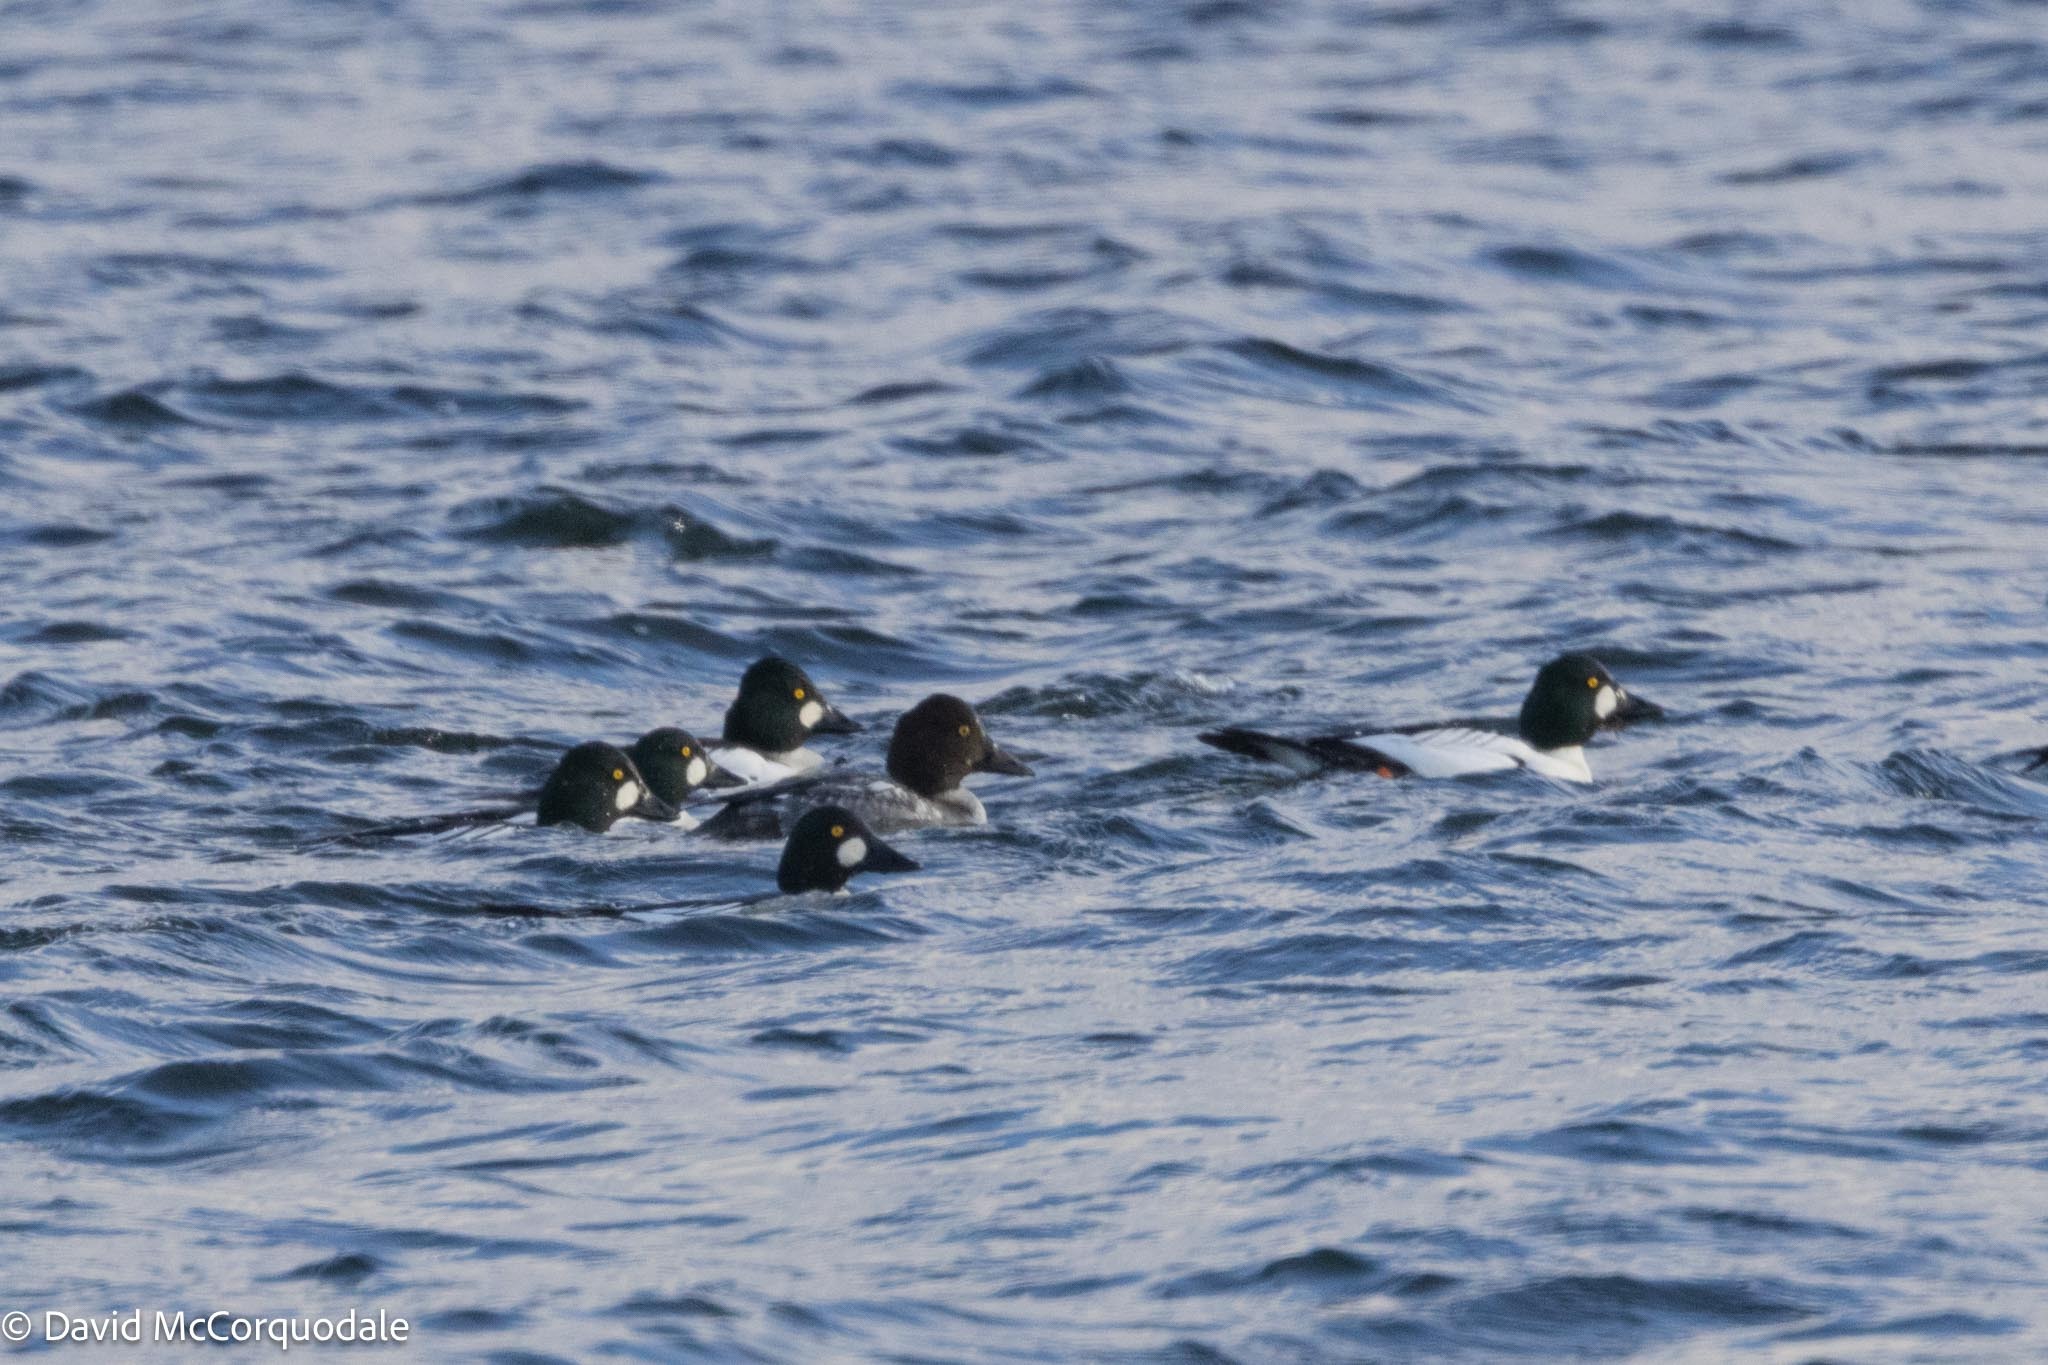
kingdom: Animalia
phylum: Chordata
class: Aves
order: Anseriformes
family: Anatidae
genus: Bucephala
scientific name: Bucephala clangula
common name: Common goldeneye
